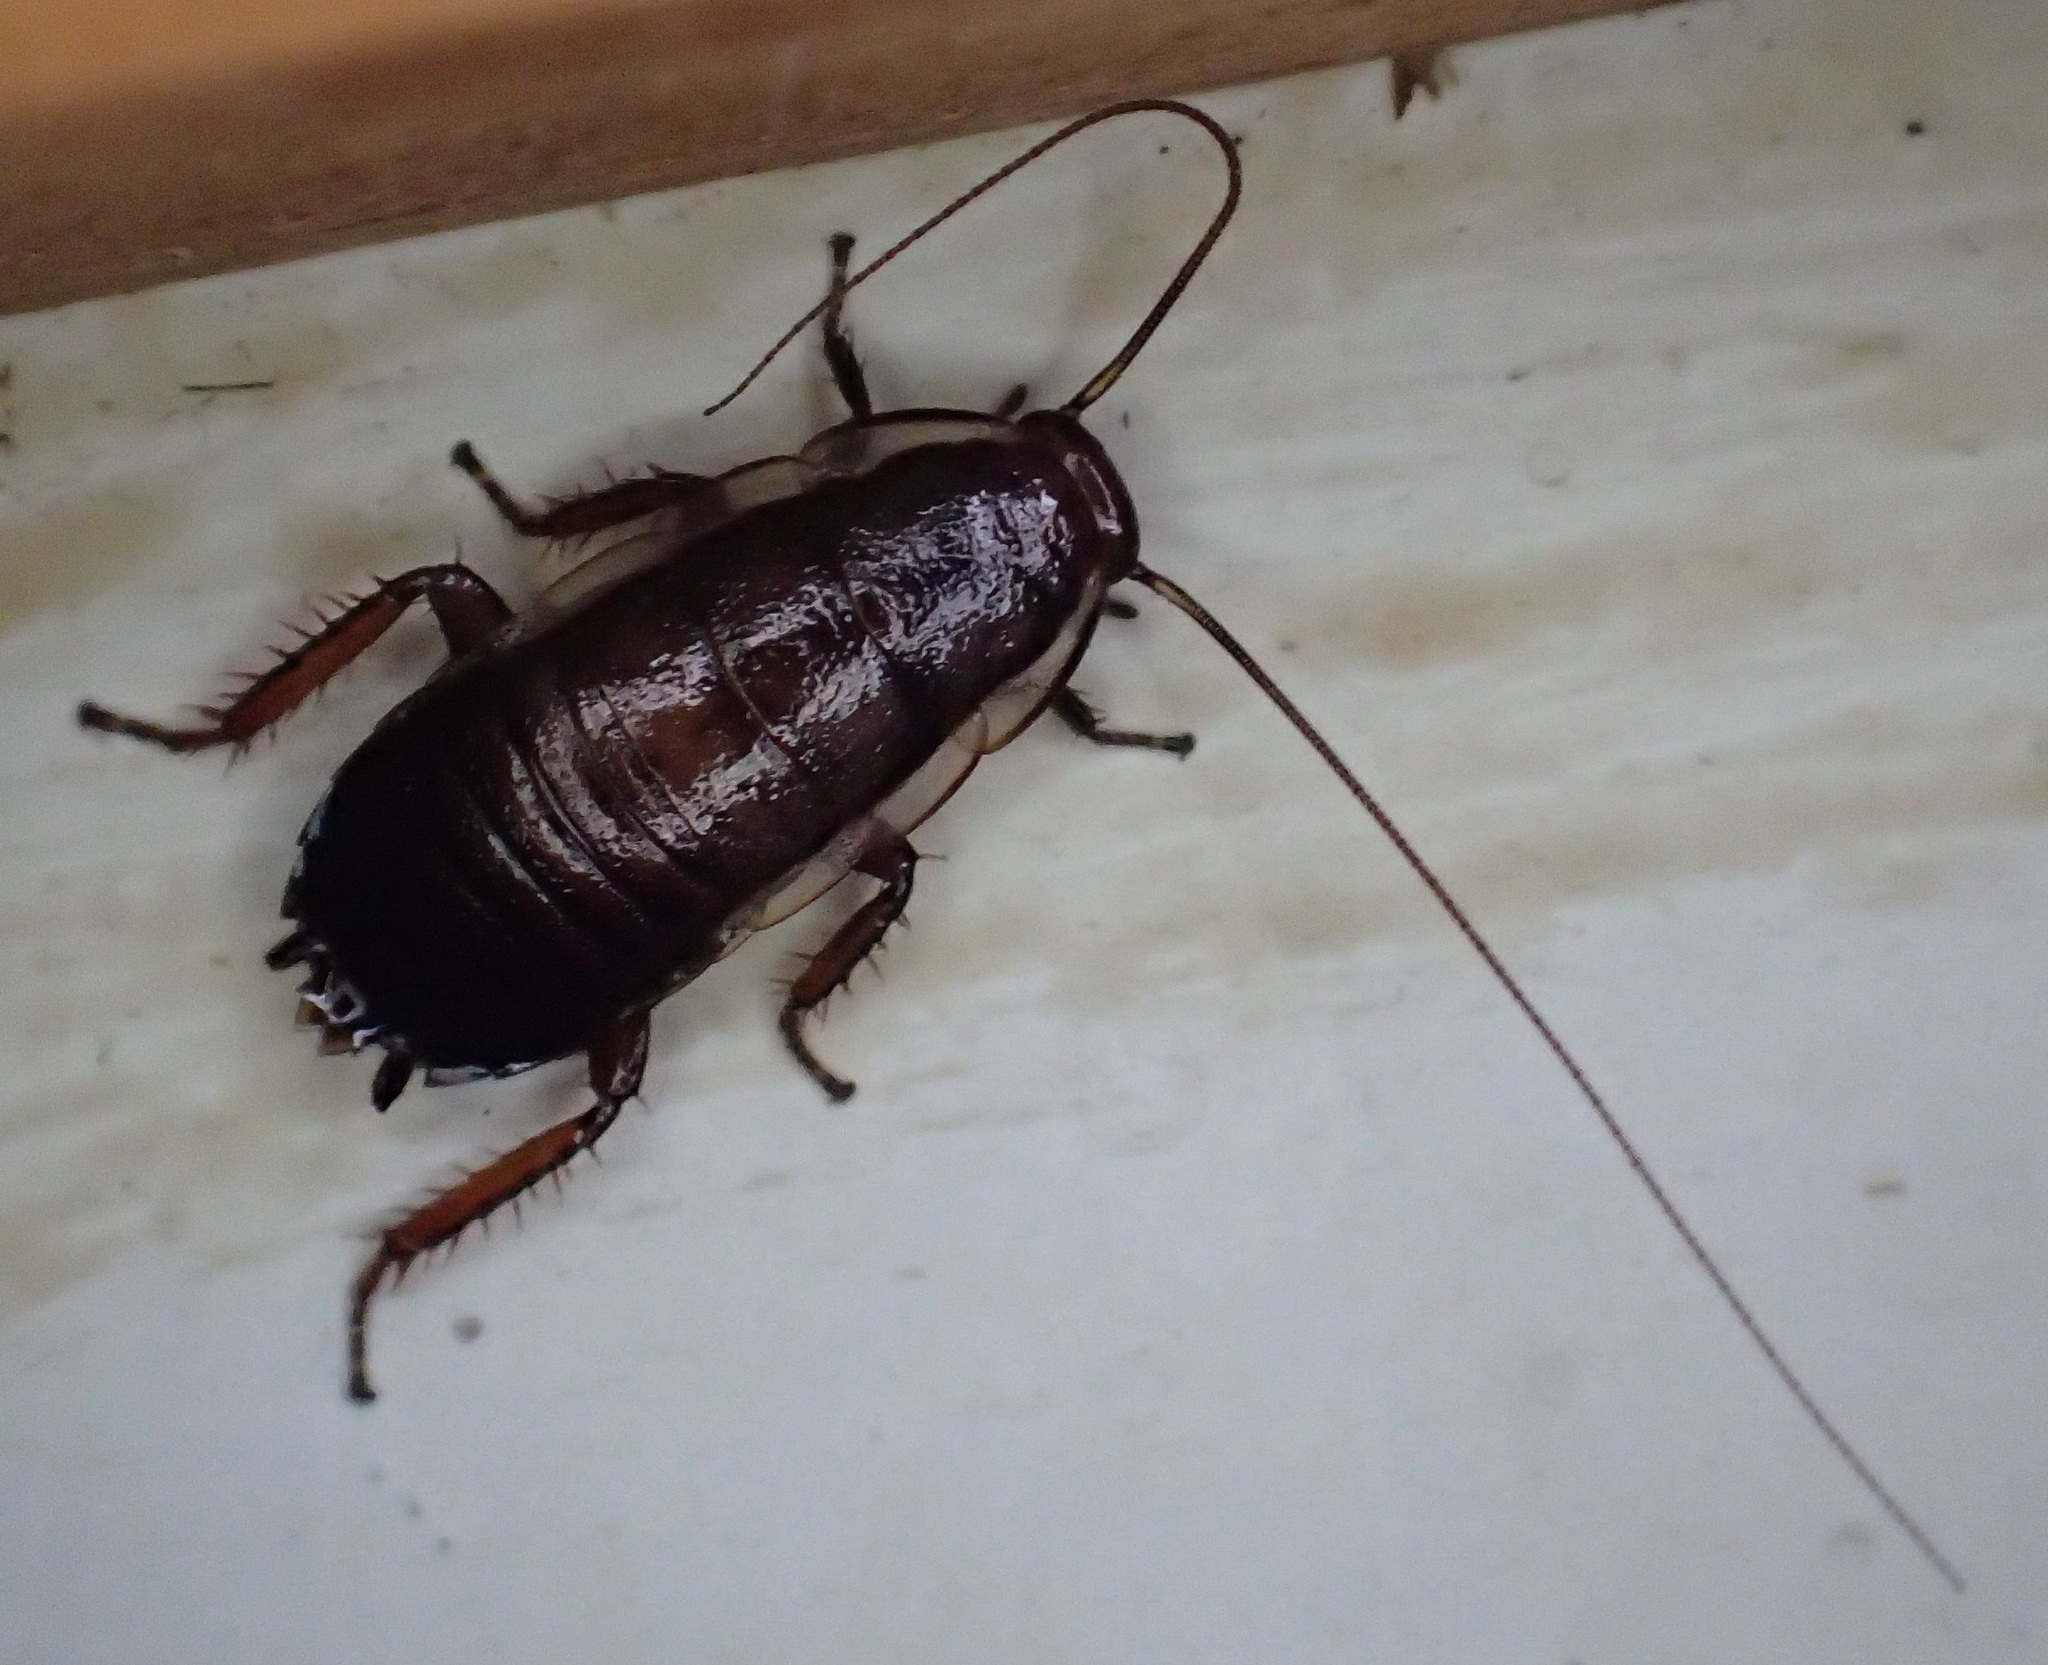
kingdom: Animalia
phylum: Arthropoda
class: Insecta
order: Blattodea
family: Blattidae
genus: Drymaplaneta
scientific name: Drymaplaneta semivitta
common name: Gisborne cockroach
